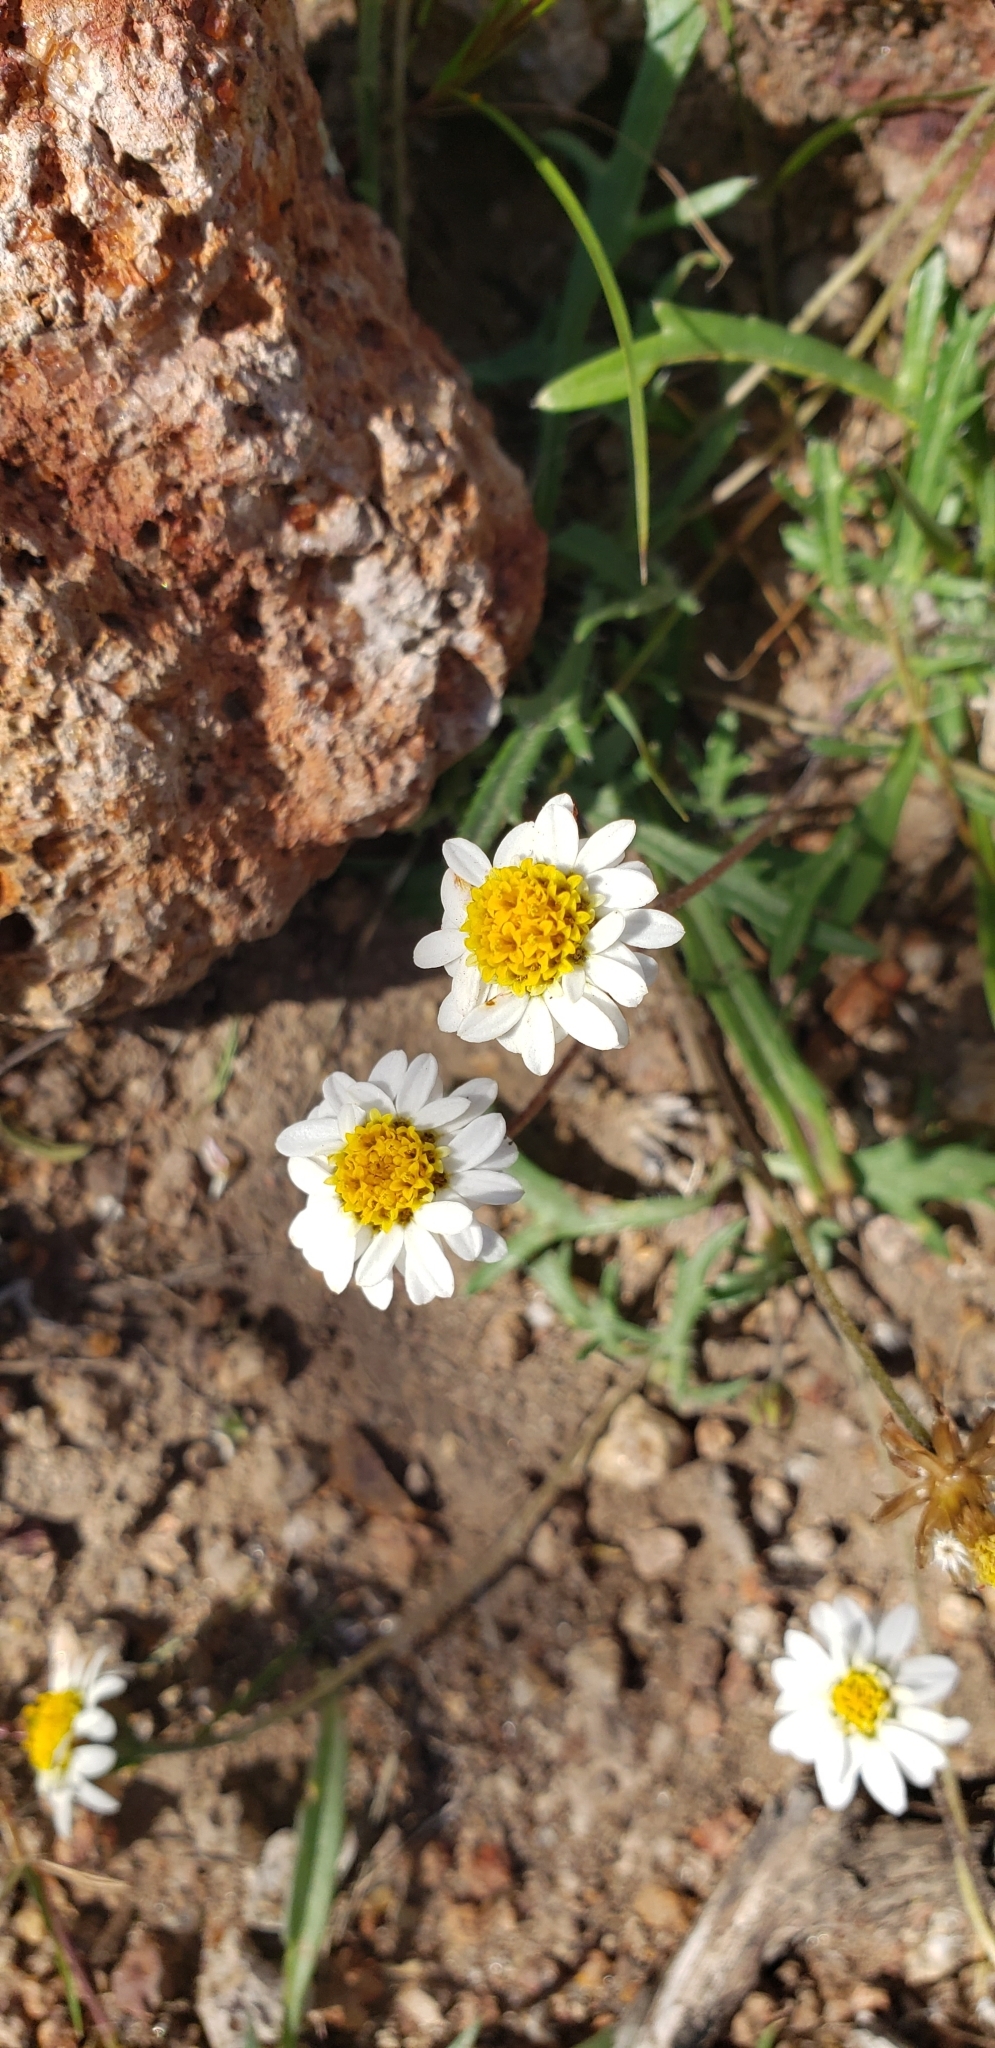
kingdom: Plantae
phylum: Tracheophyta
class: Magnoliopsida
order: Asterales
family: Asteraceae
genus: Tridax
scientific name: Tridax coronopifolia
